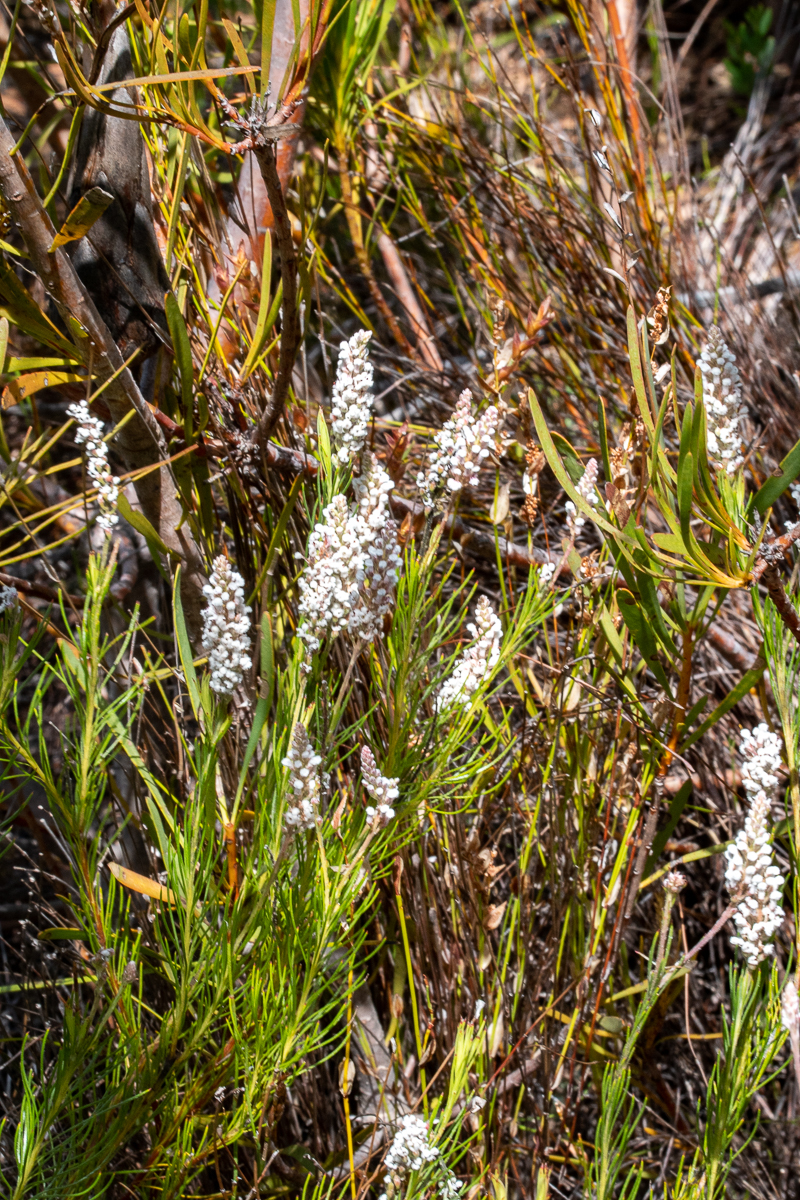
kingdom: Plantae
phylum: Tracheophyta
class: Magnoliopsida
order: Proteales
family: Proteaceae
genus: Spatalla
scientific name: Spatalla racemosa
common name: Lax-stalked spoon
